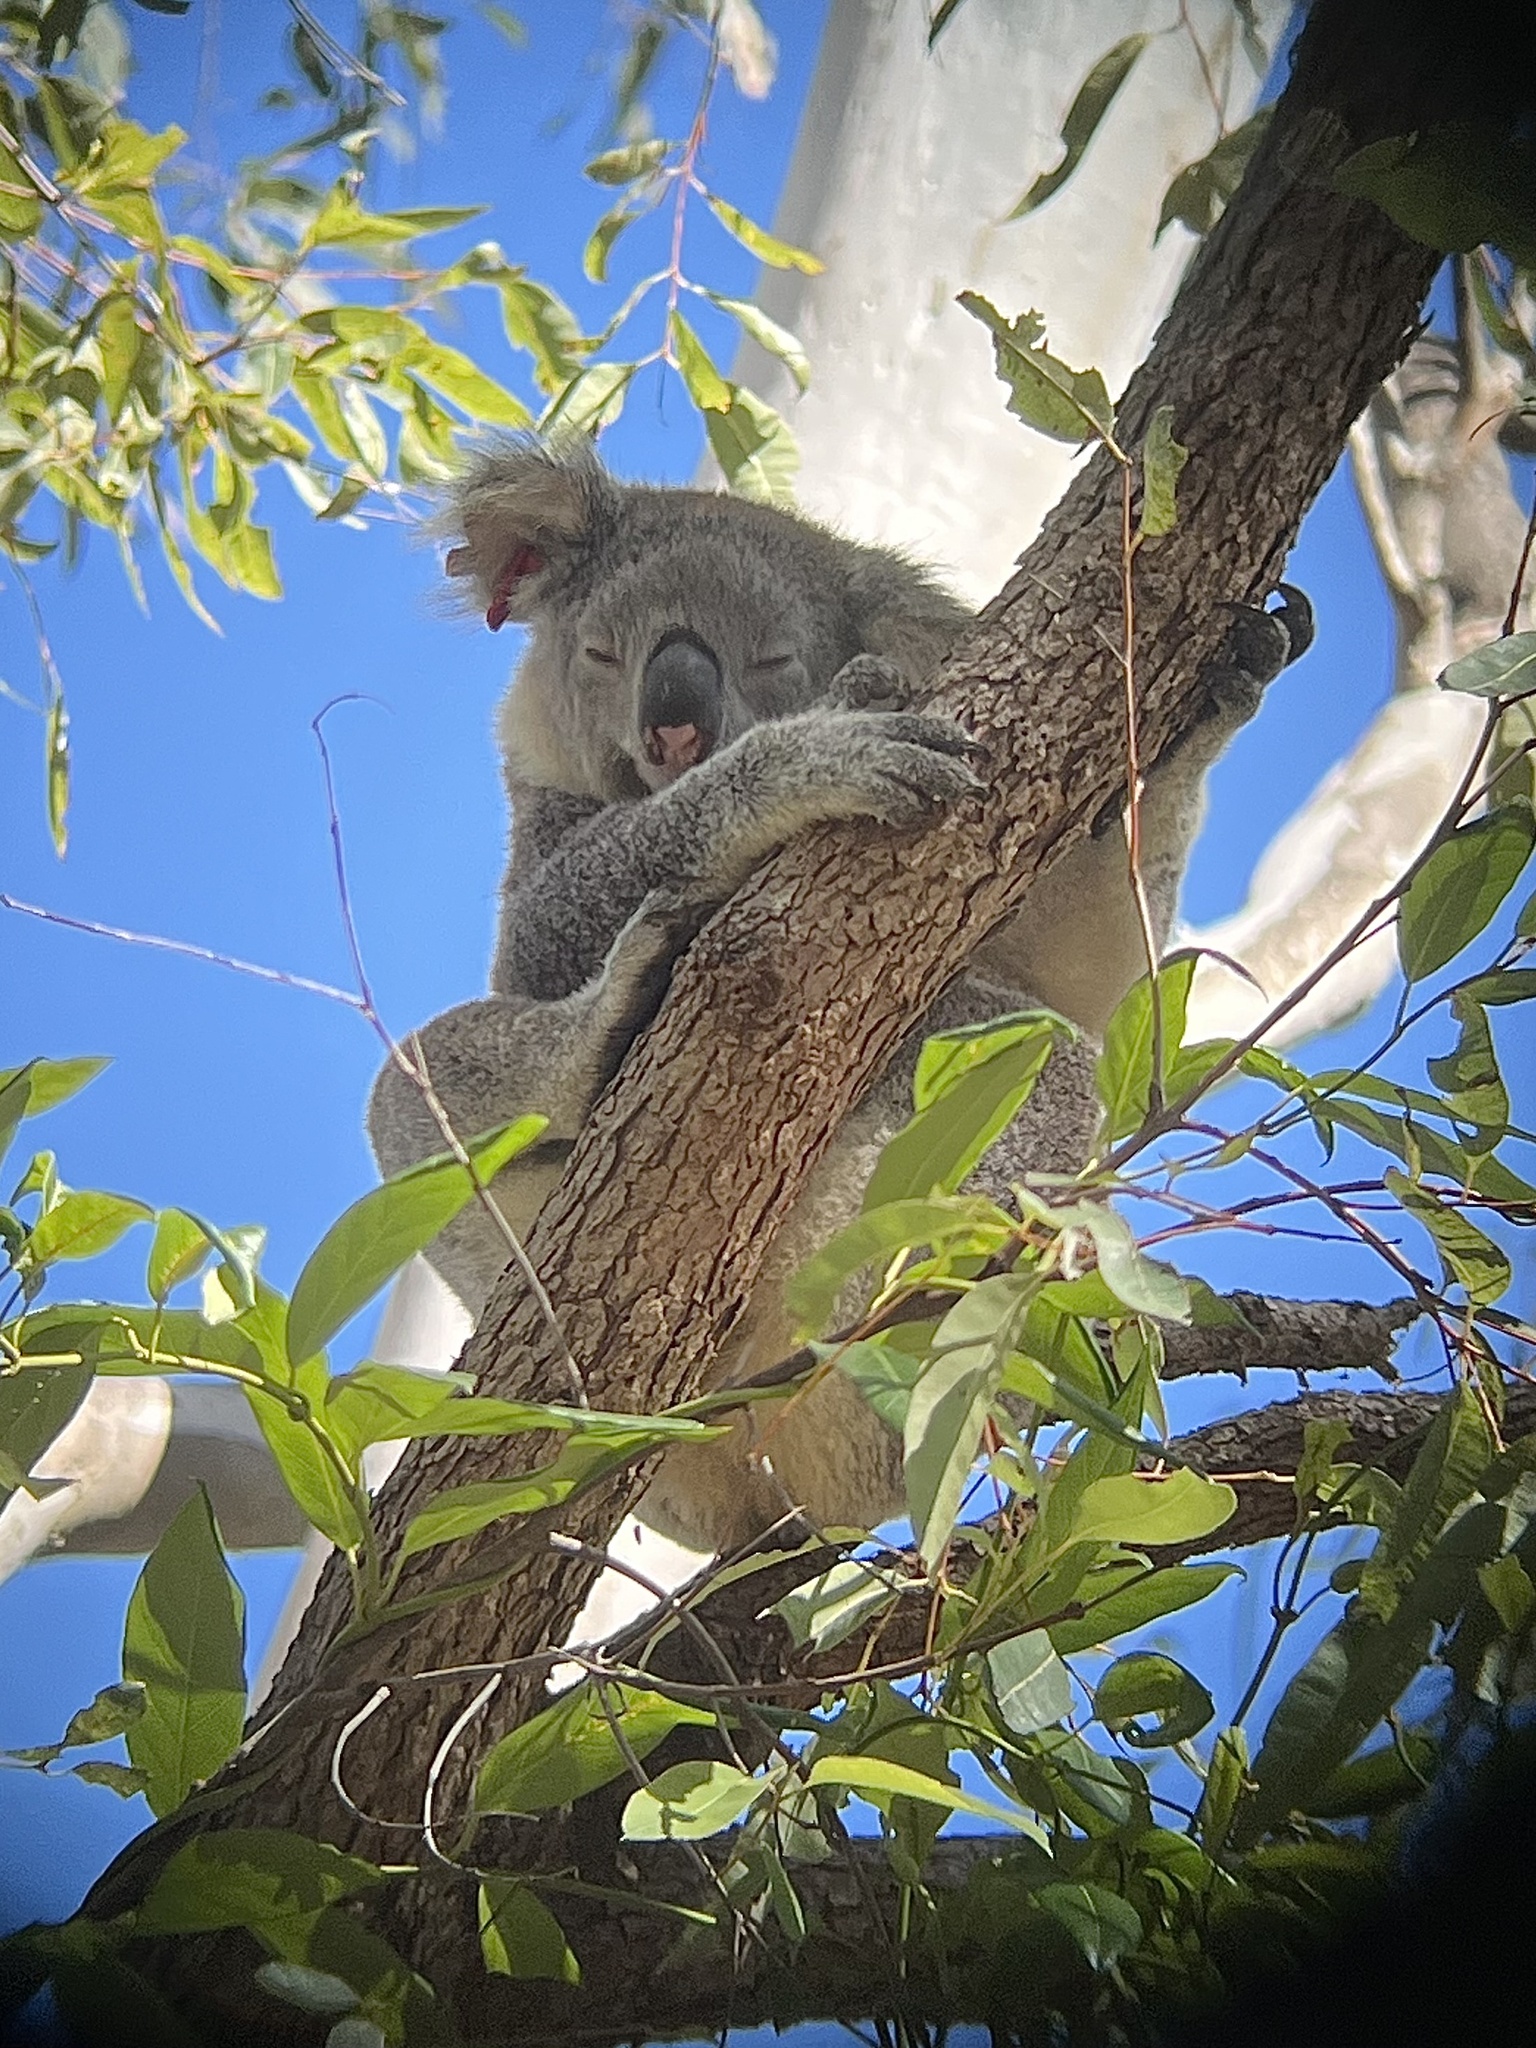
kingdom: Animalia
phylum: Chordata
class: Mammalia
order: Diprotodontia
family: Phascolarctidae
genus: Phascolarctos
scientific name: Phascolarctos cinereus
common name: Koala
